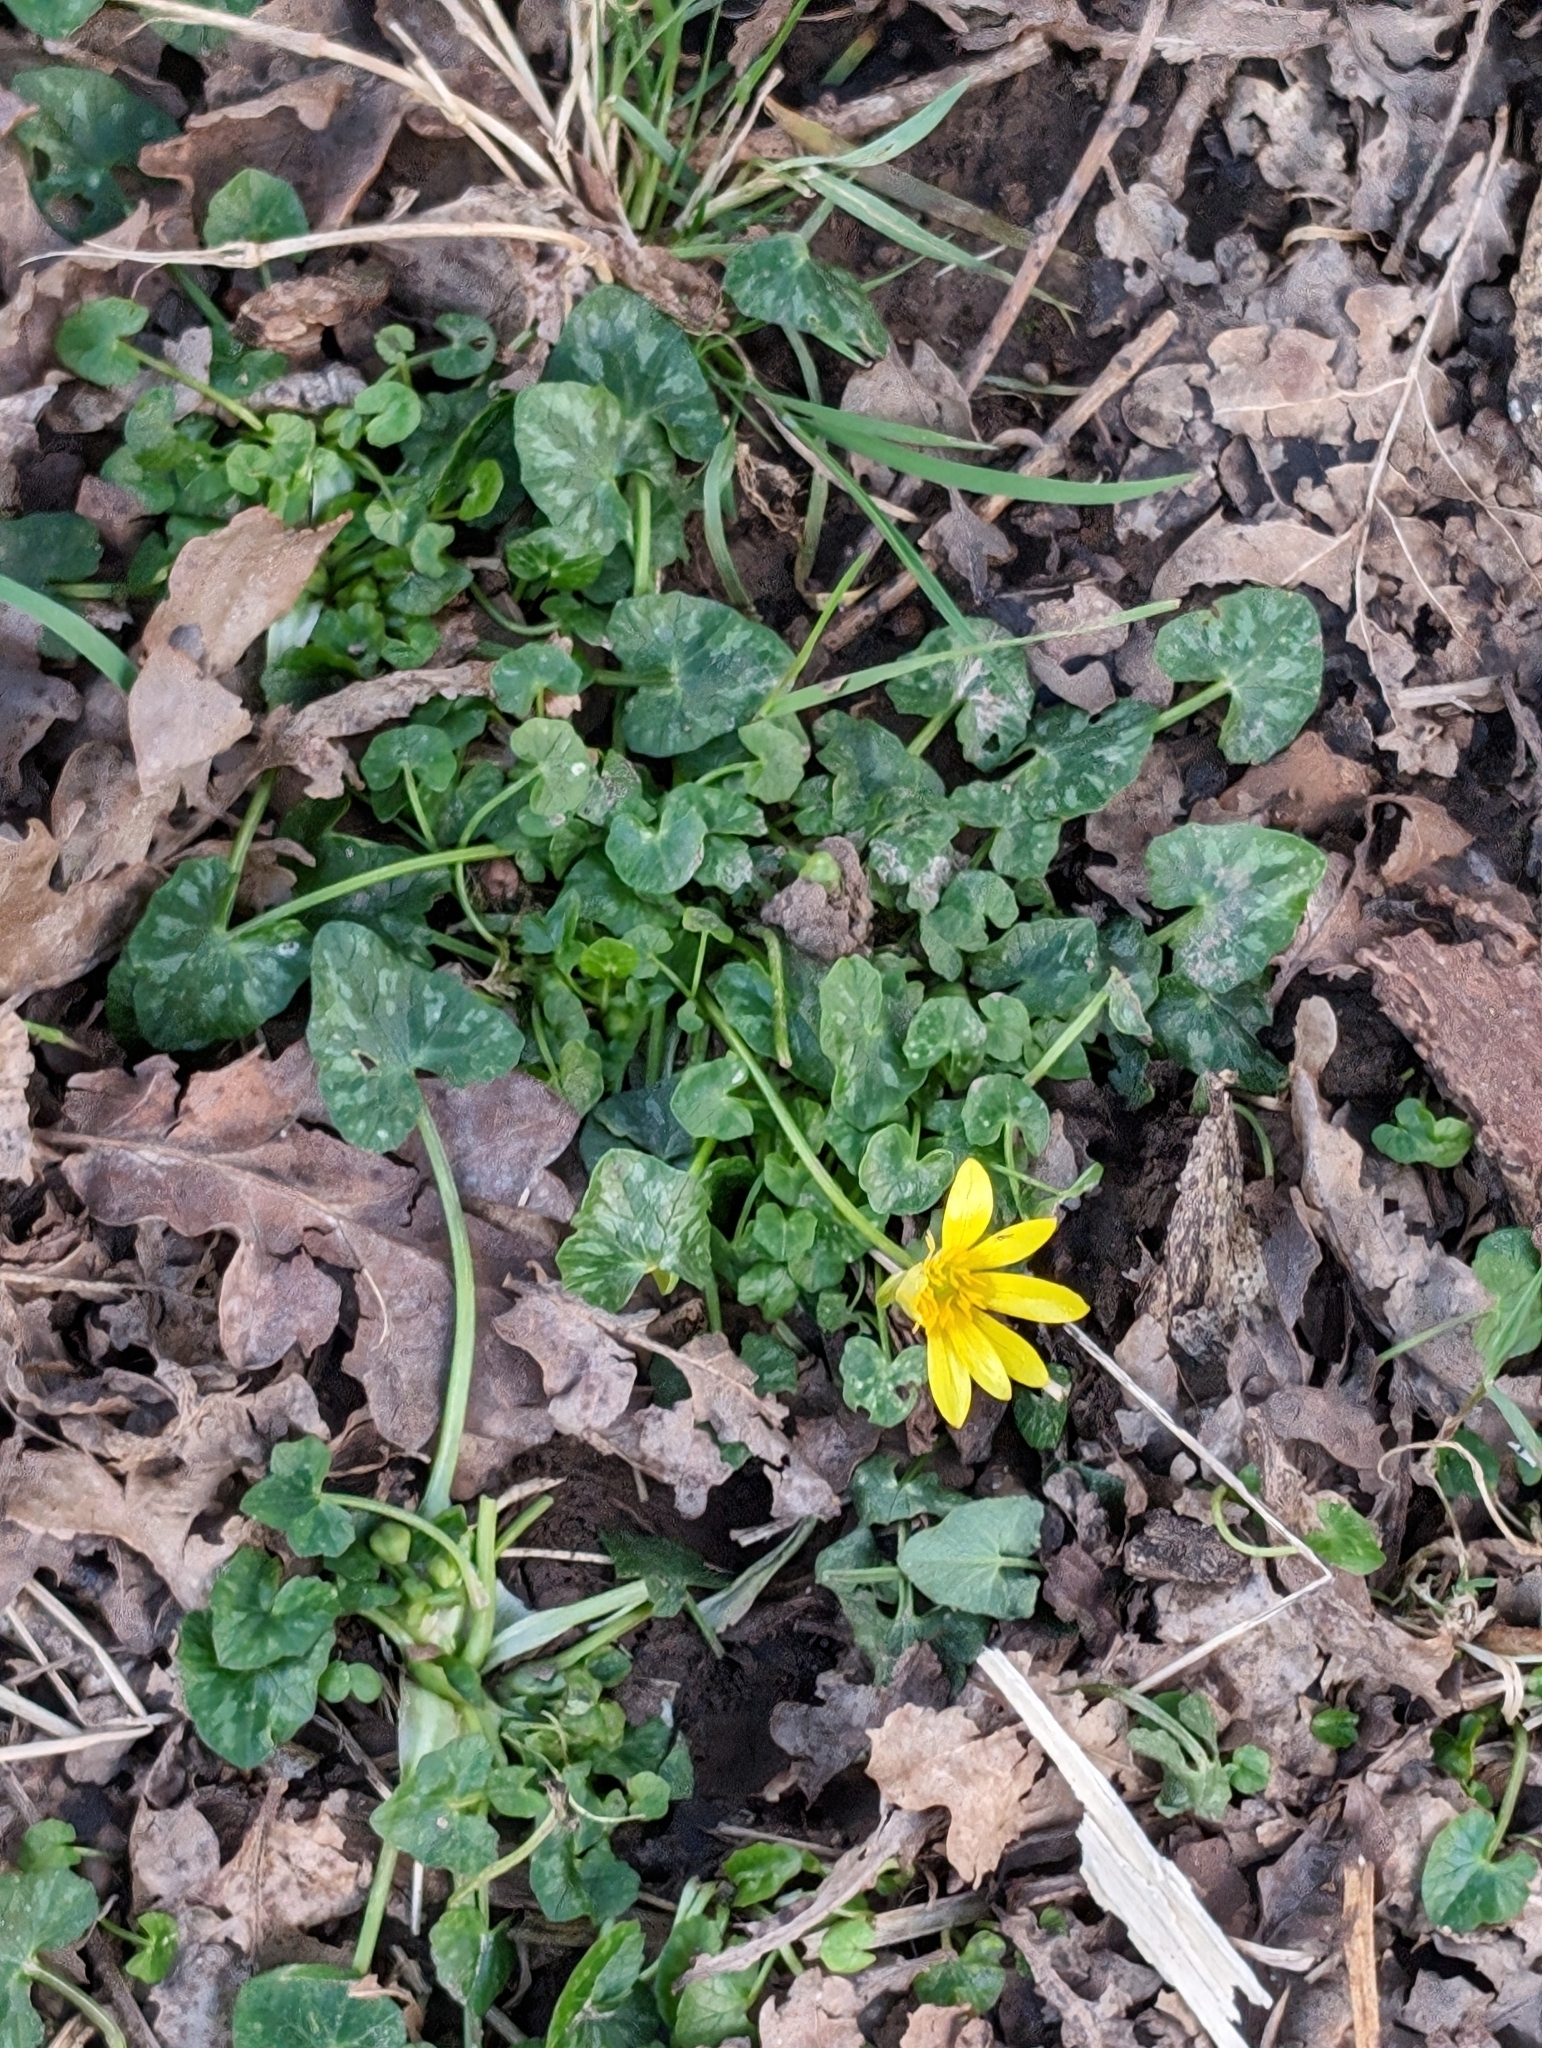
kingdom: Plantae
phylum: Tracheophyta
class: Magnoliopsida
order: Ranunculales
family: Ranunculaceae
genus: Ficaria
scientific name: Ficaria verna
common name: Lesser celandine
